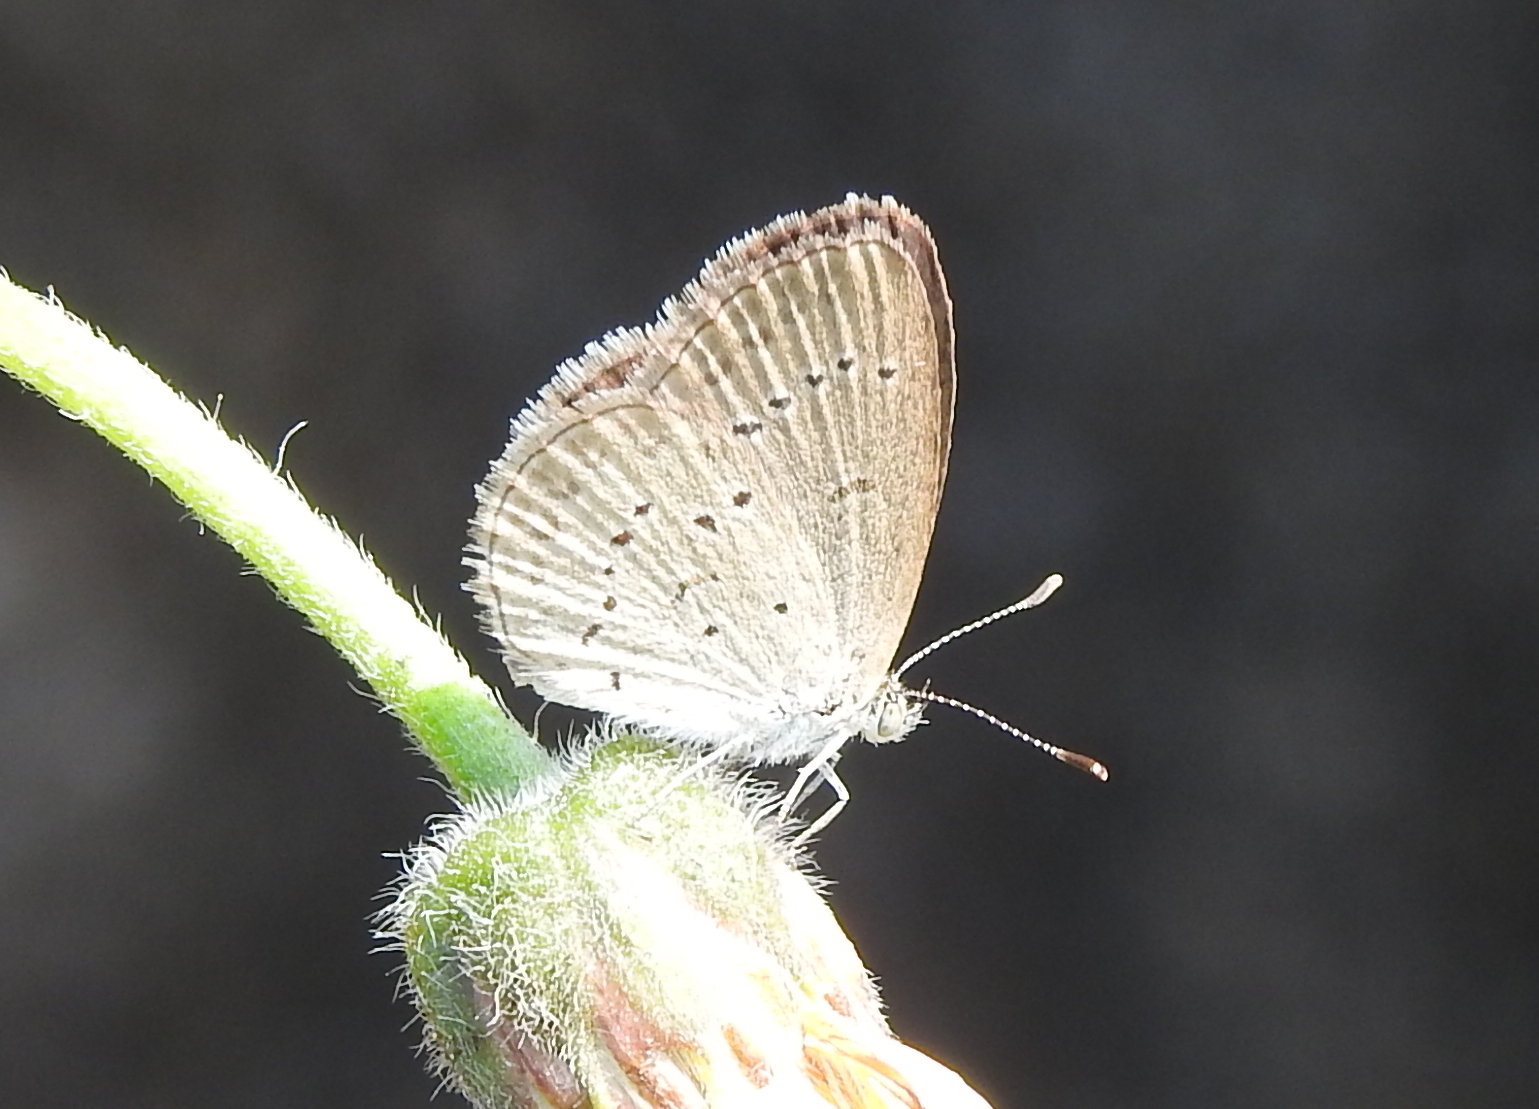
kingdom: Animalia
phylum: Arthropoda
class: Insecta
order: Lepidoptera
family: Lycaenidae
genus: Zizina
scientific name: Zizina otis
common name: Lesser grass blue
